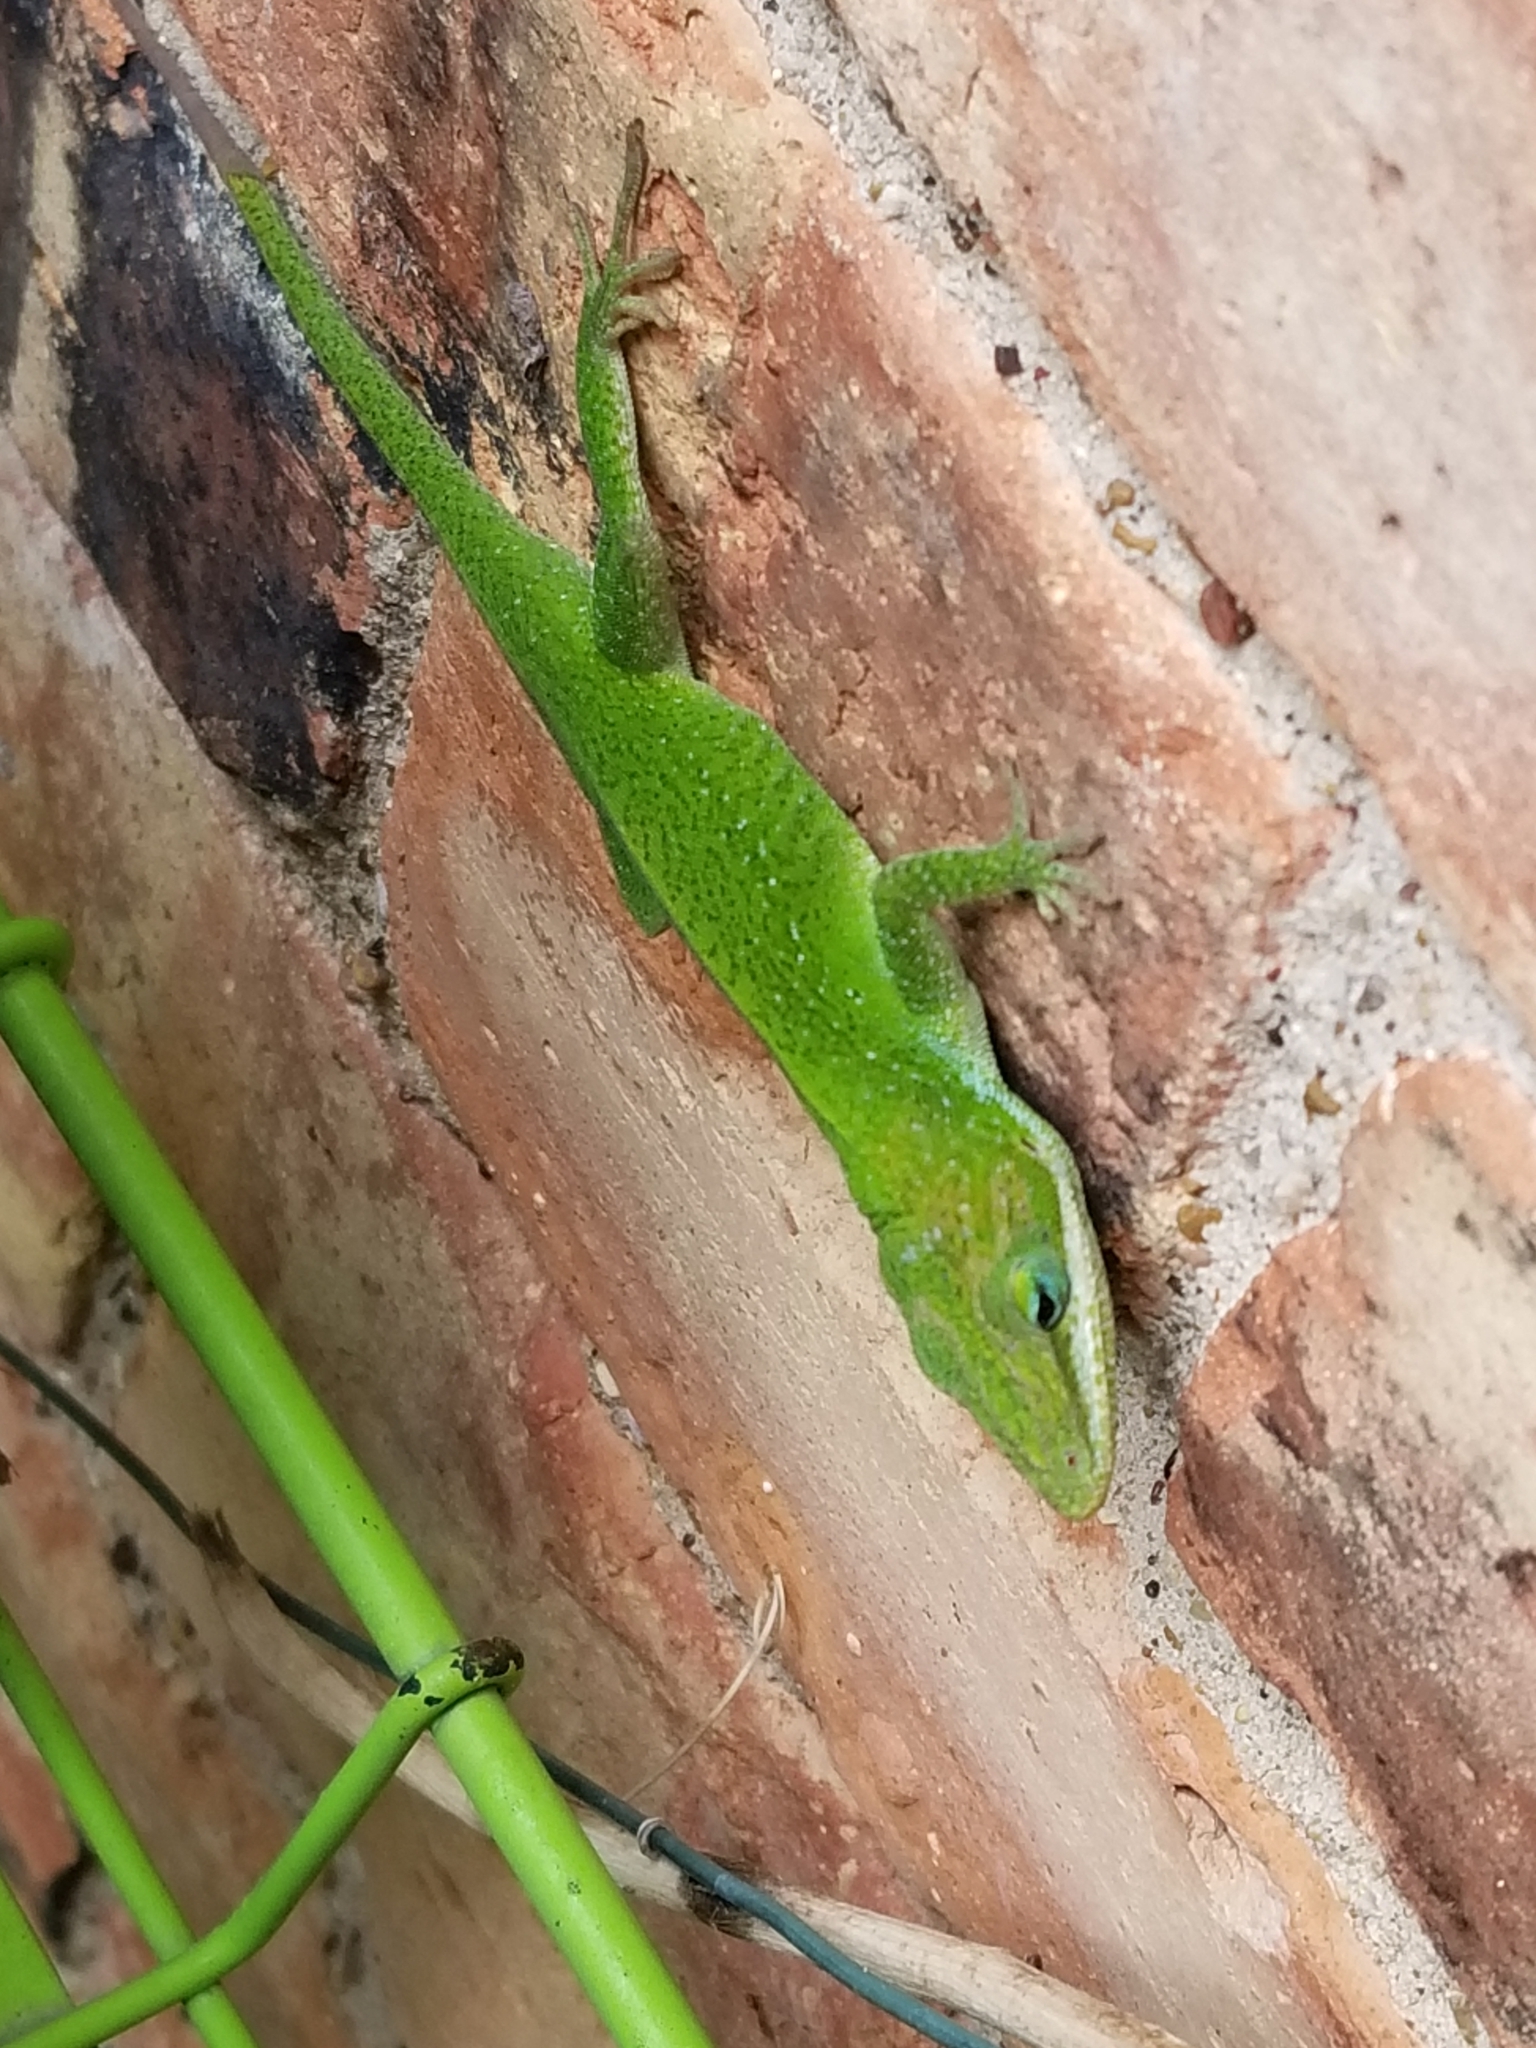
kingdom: Animalia
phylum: Chordata
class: Squamata
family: Dactyloidae
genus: Anolis
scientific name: Anolis carolinensis
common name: Green anole
